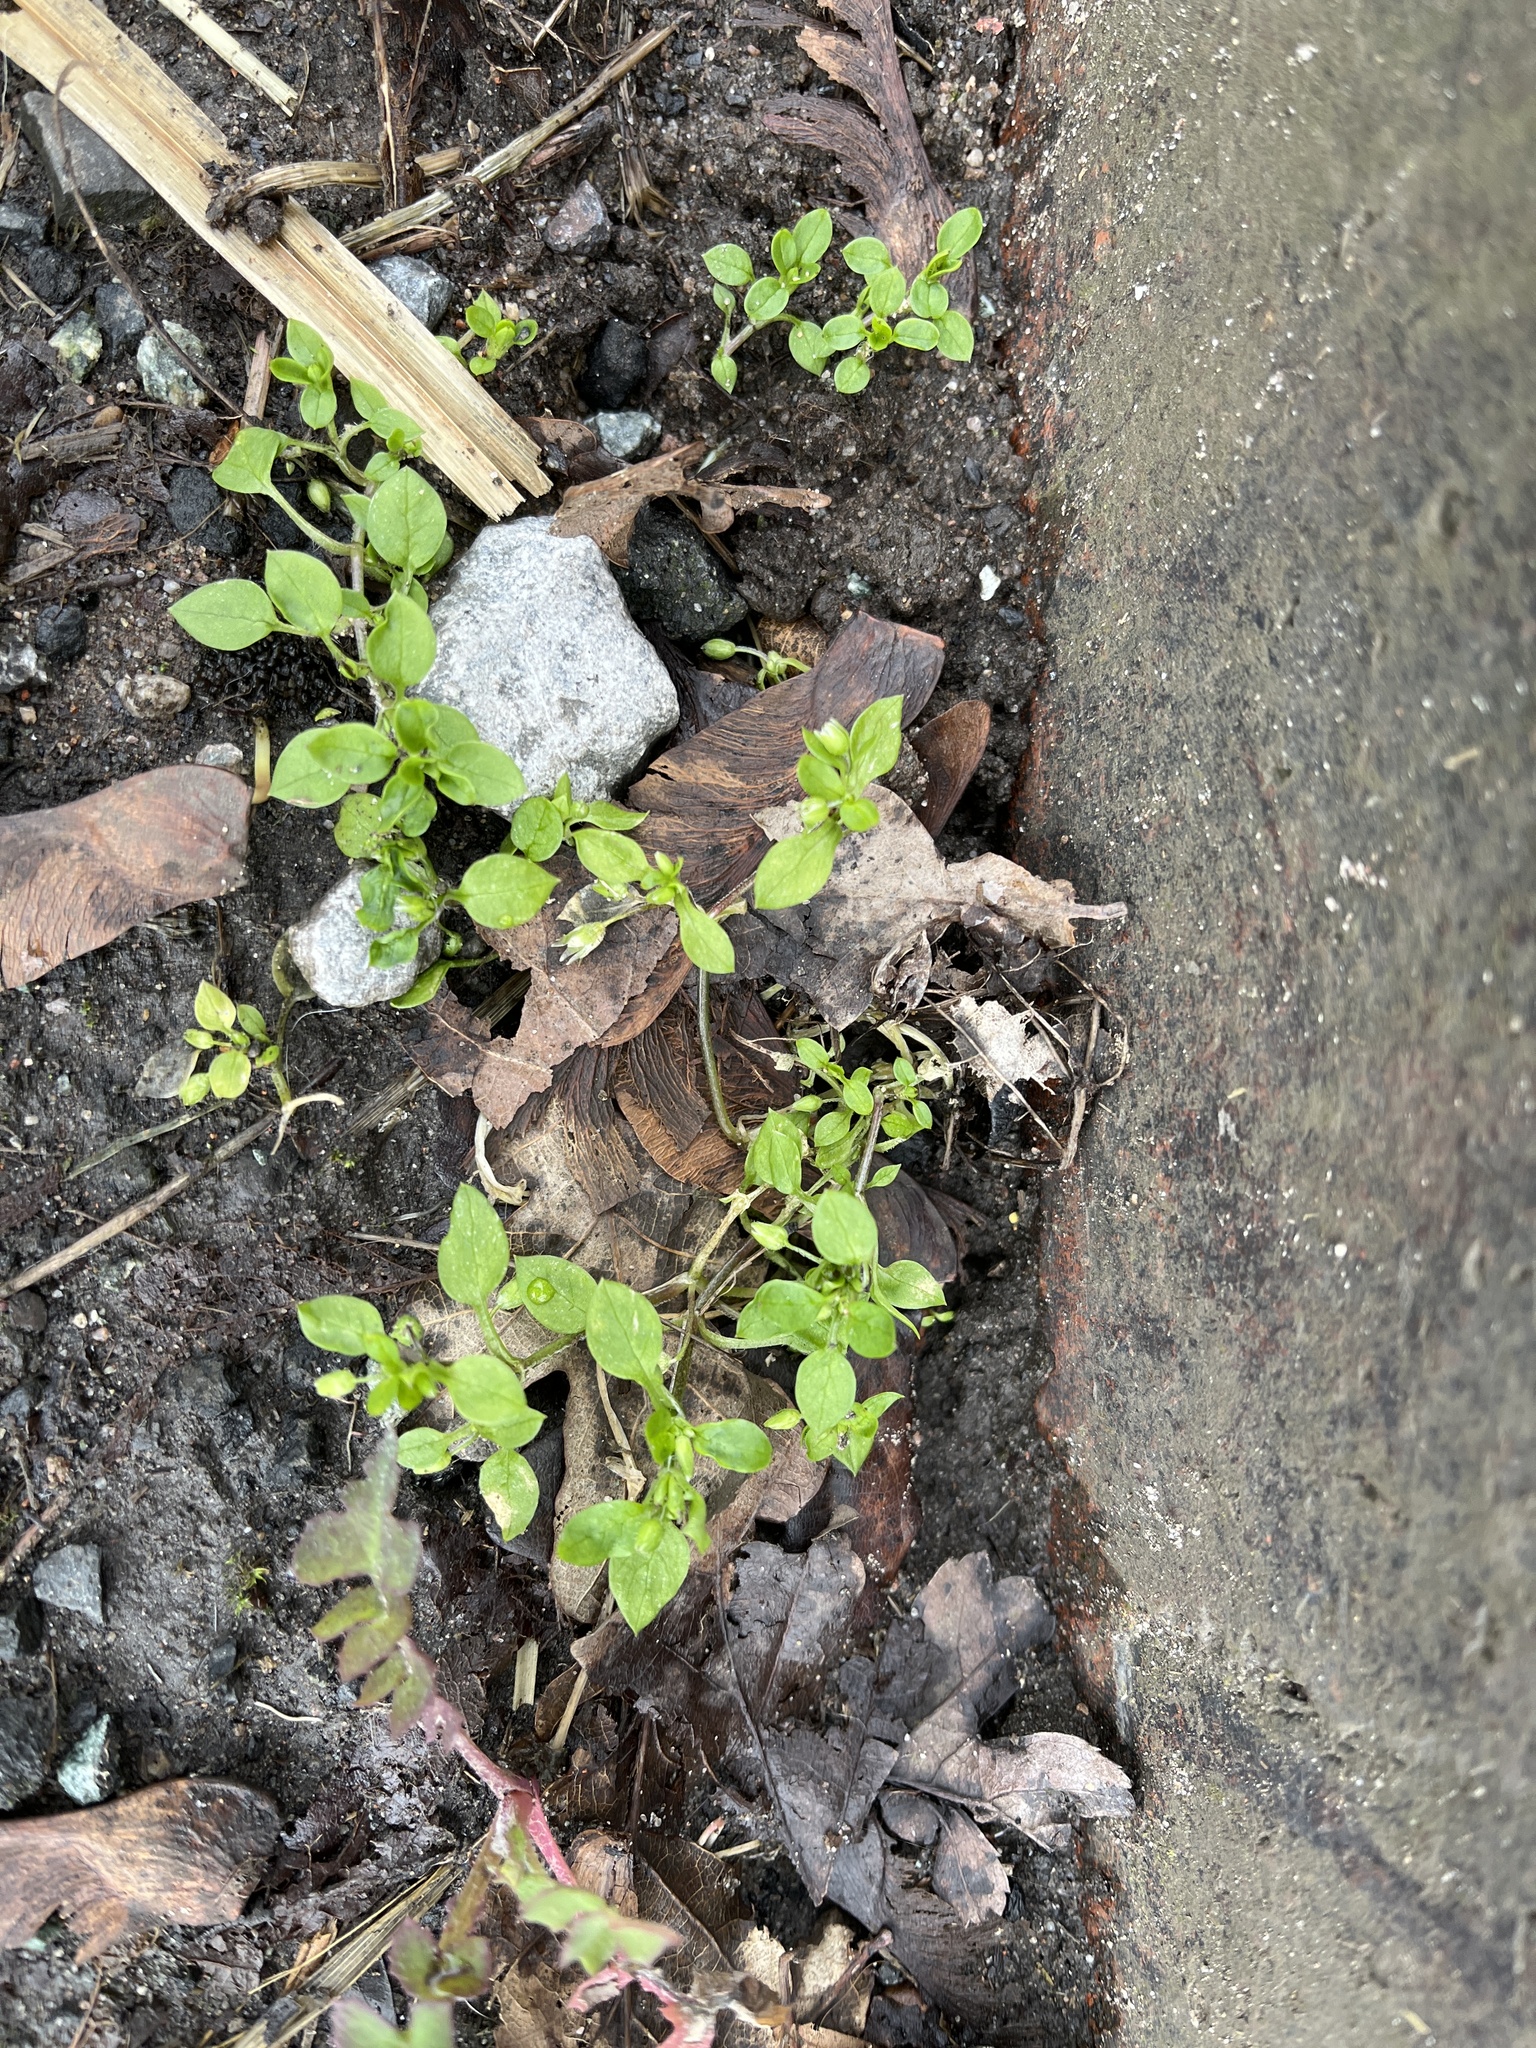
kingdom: Plantae
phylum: Tracheophyta
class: Magnoliopsida
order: Caryophyllales
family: Caryophyllaceae
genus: Stellaria
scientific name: Stellaria media
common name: Common chickweed
